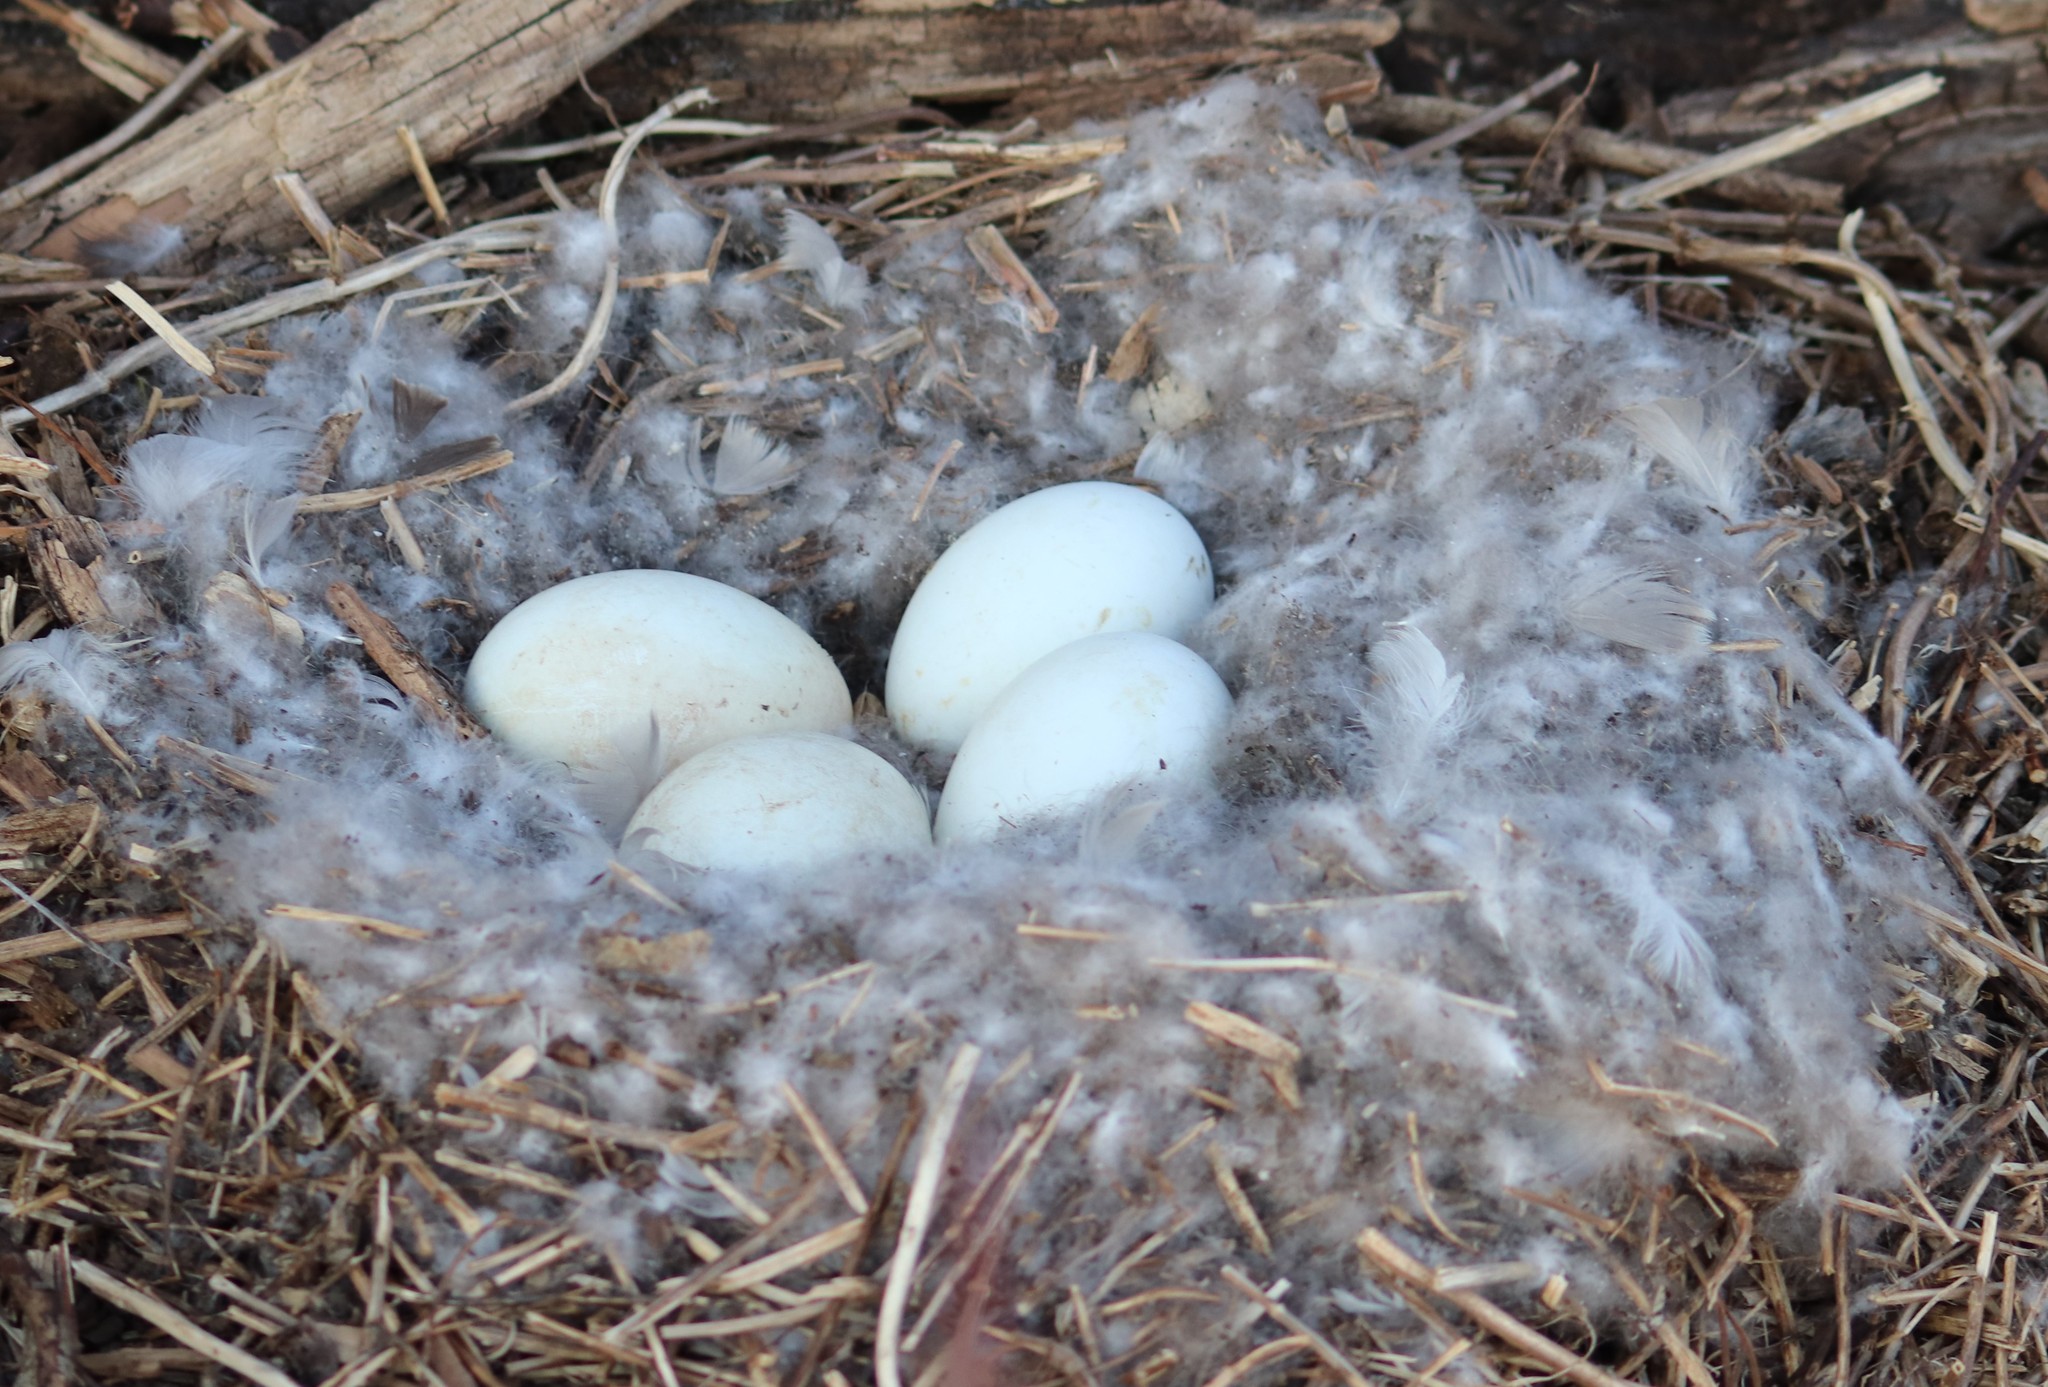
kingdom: Animalia
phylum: Chordata
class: Aves
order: Anseriformes
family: Anatidae
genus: Branta
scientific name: Branta canadensis
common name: Canada goose
